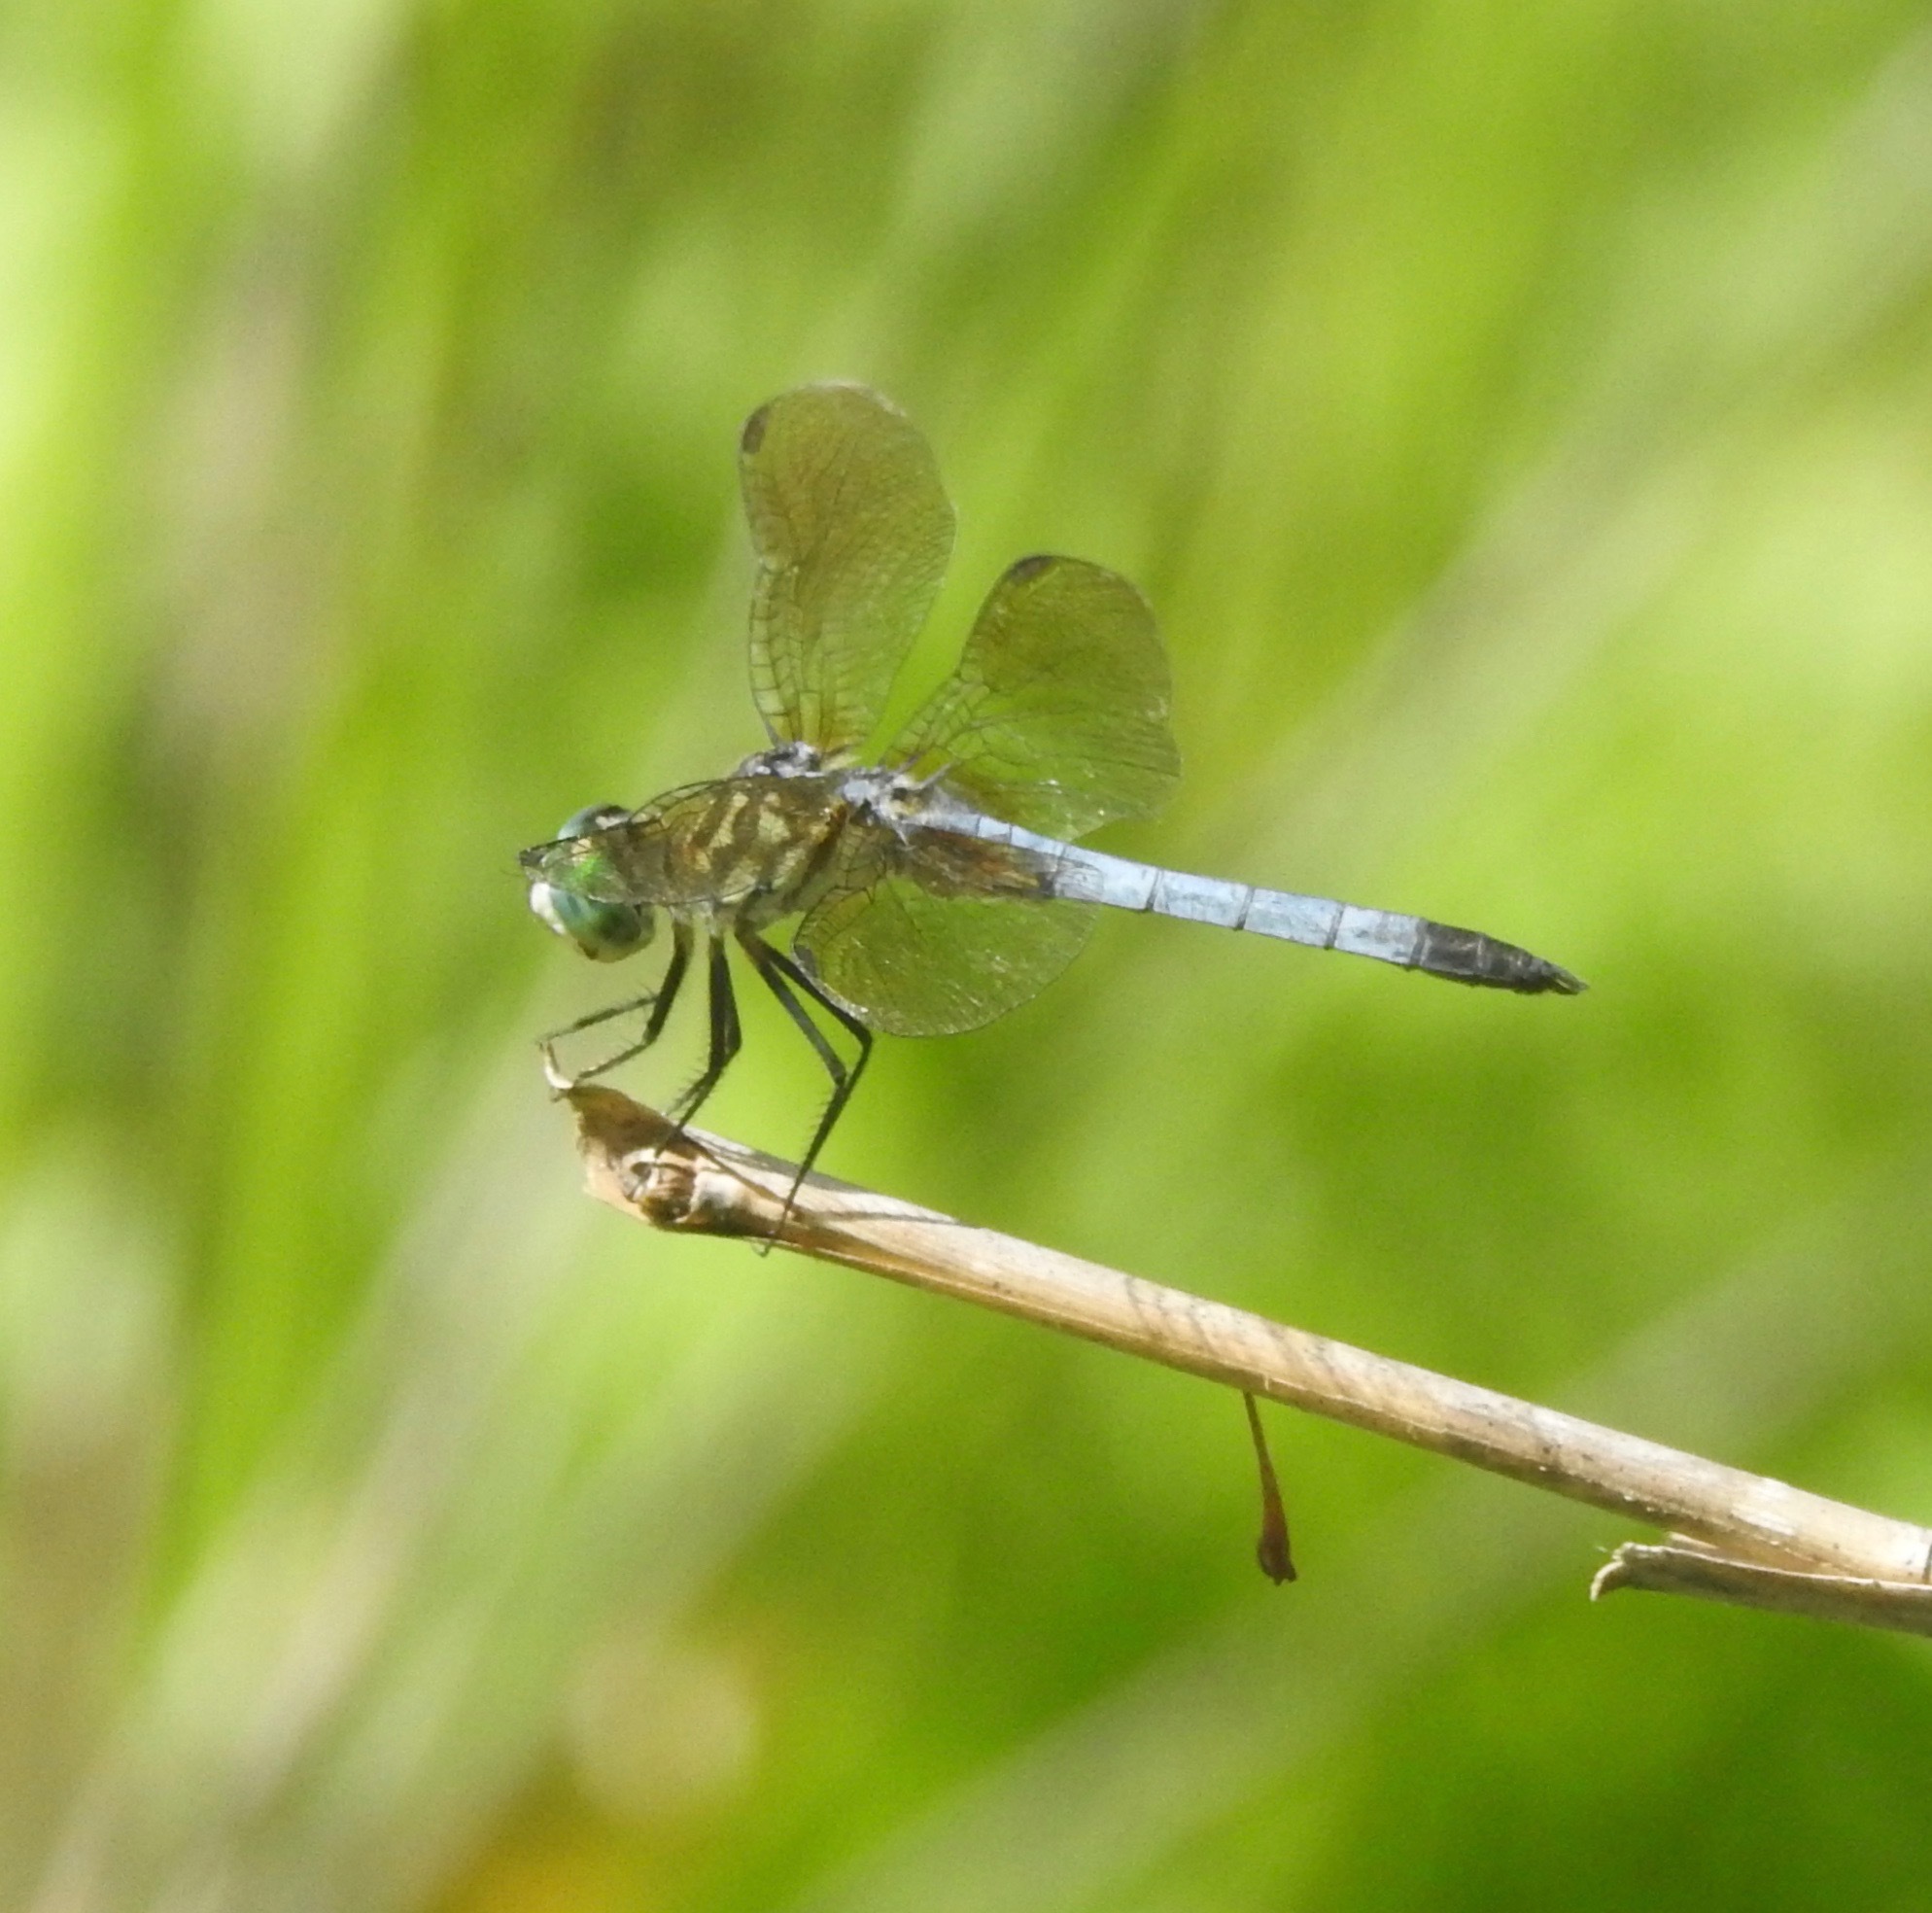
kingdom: Animalia
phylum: Arthropoda
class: Insecta
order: Odonata
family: Libellulidae
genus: Pachydiplax
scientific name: Pachydiplax longipennis
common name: Blue dasher
